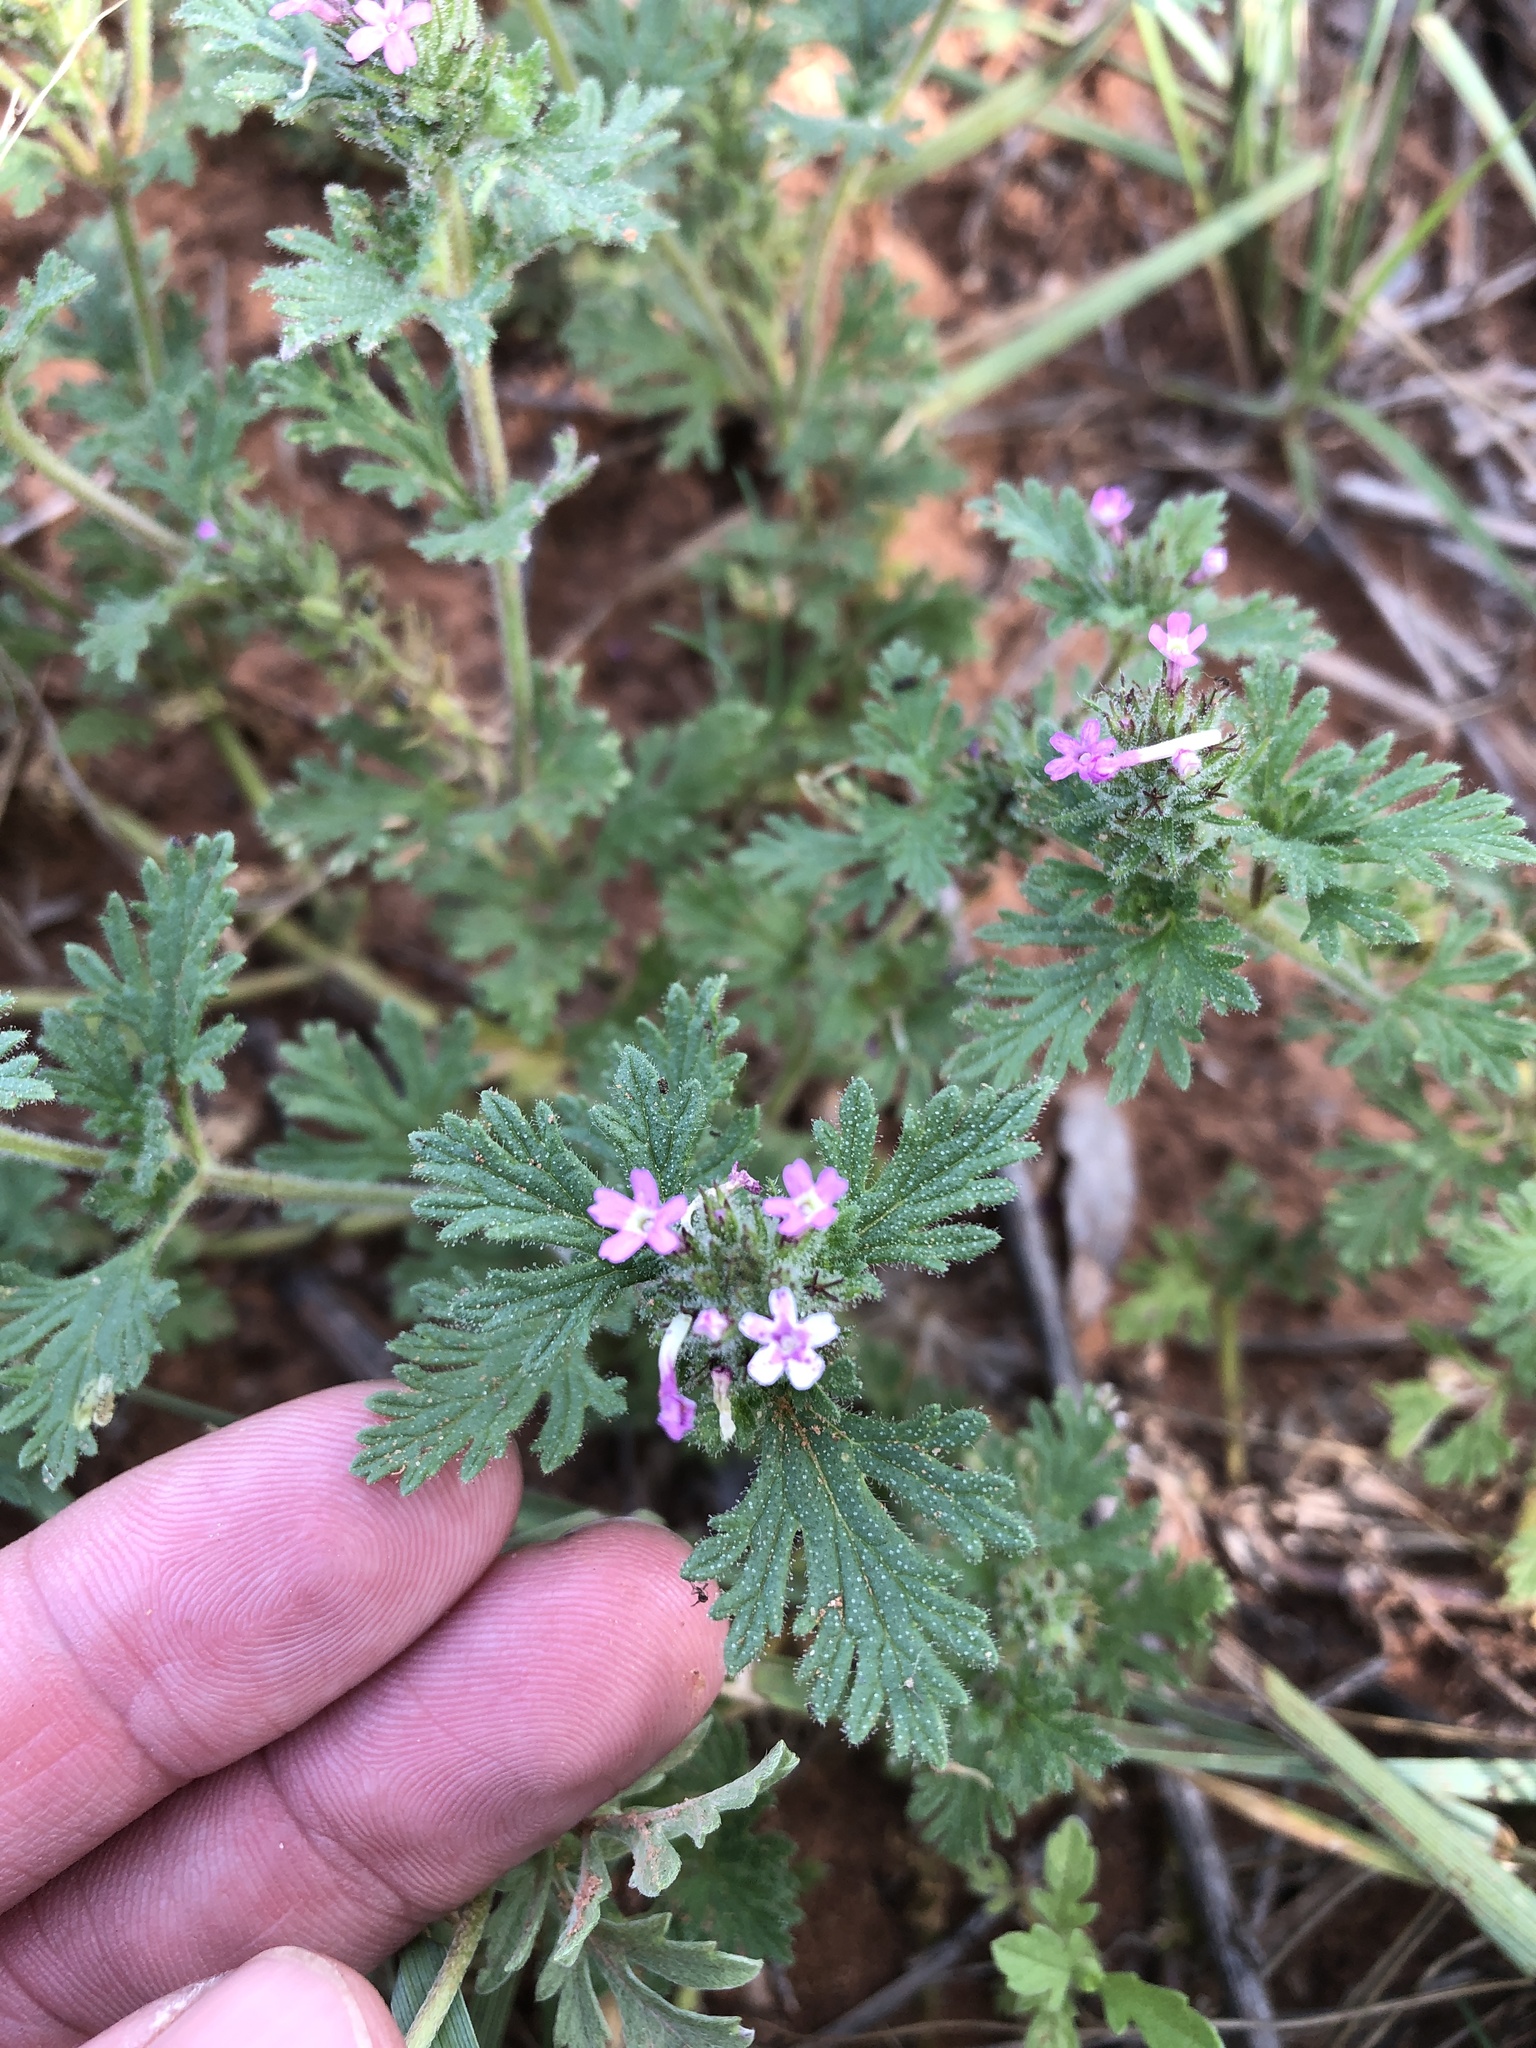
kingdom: Plantae
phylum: Tracheophyta
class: Magnoliopsida
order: Lamiales
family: Verbenaceae
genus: Verbena
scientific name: Verbena pumila
